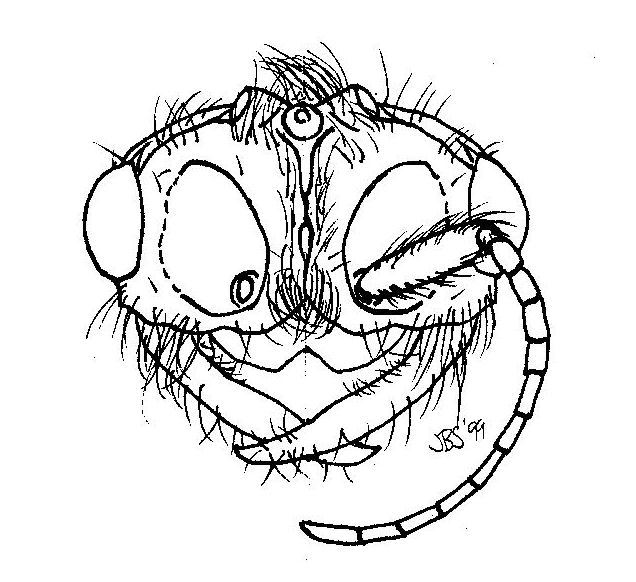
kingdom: Animalia
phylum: Arthropoda
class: Insecta
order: Hymenoptera
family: Formicidae
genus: Neivamyrmex
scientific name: Neivamyrmex carolinensis
